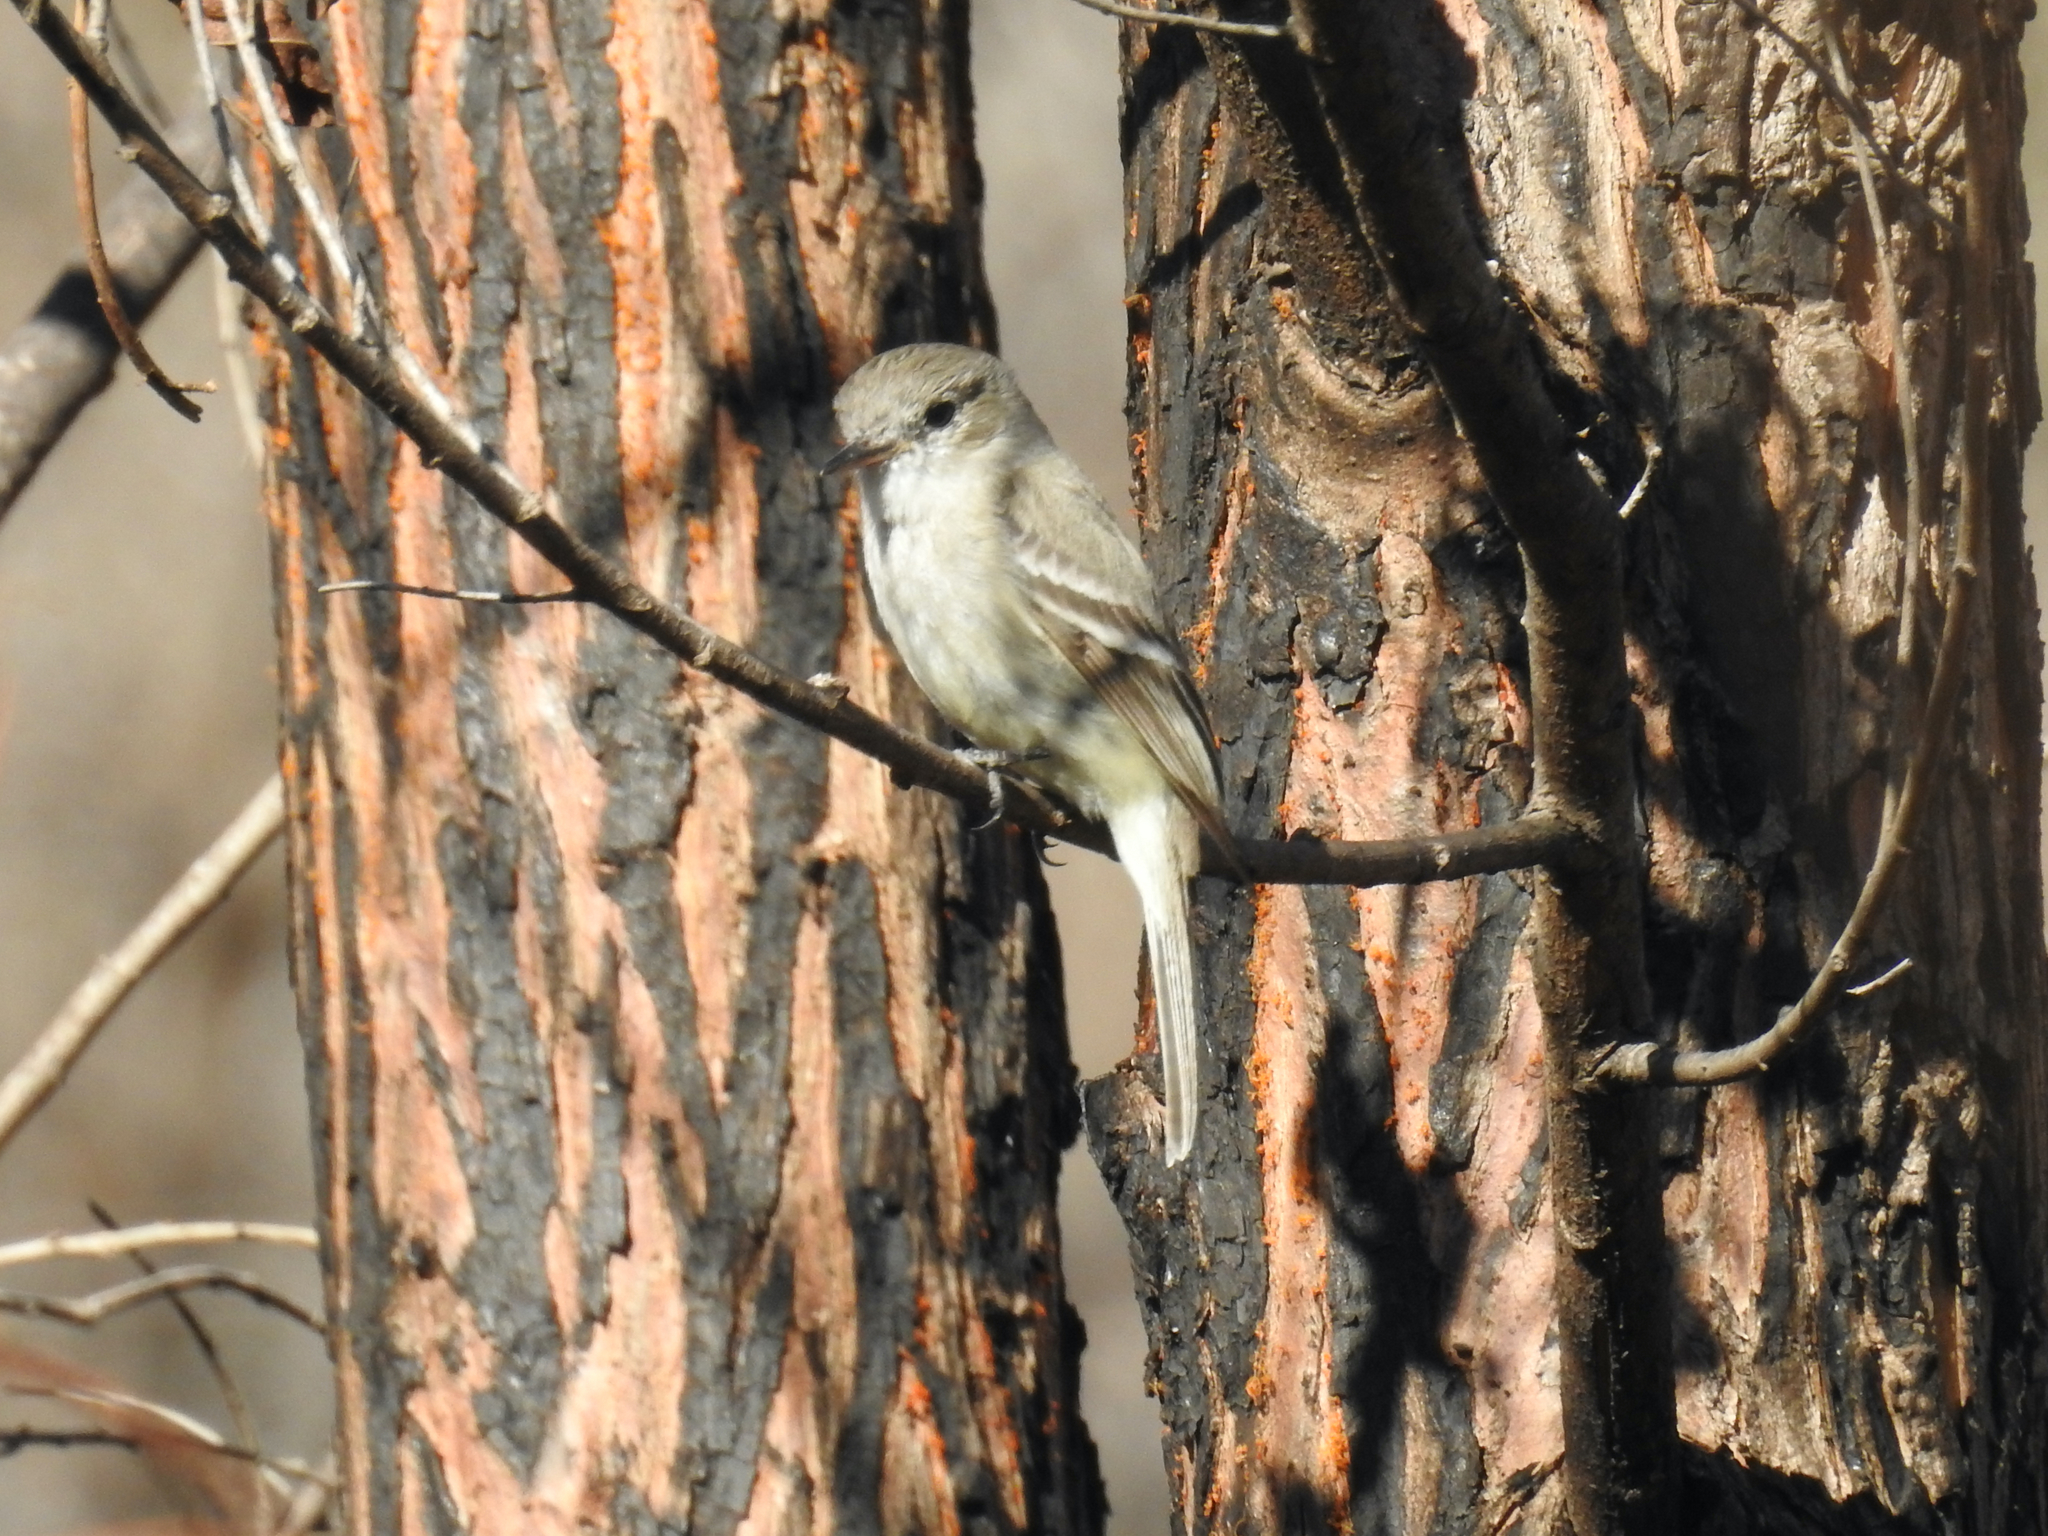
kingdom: Animalia
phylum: Chordata
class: Aves
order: Passeriformes
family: Tyrannidae
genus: Empidonax
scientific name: Empidonax wrightii
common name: Gray flycatcher
